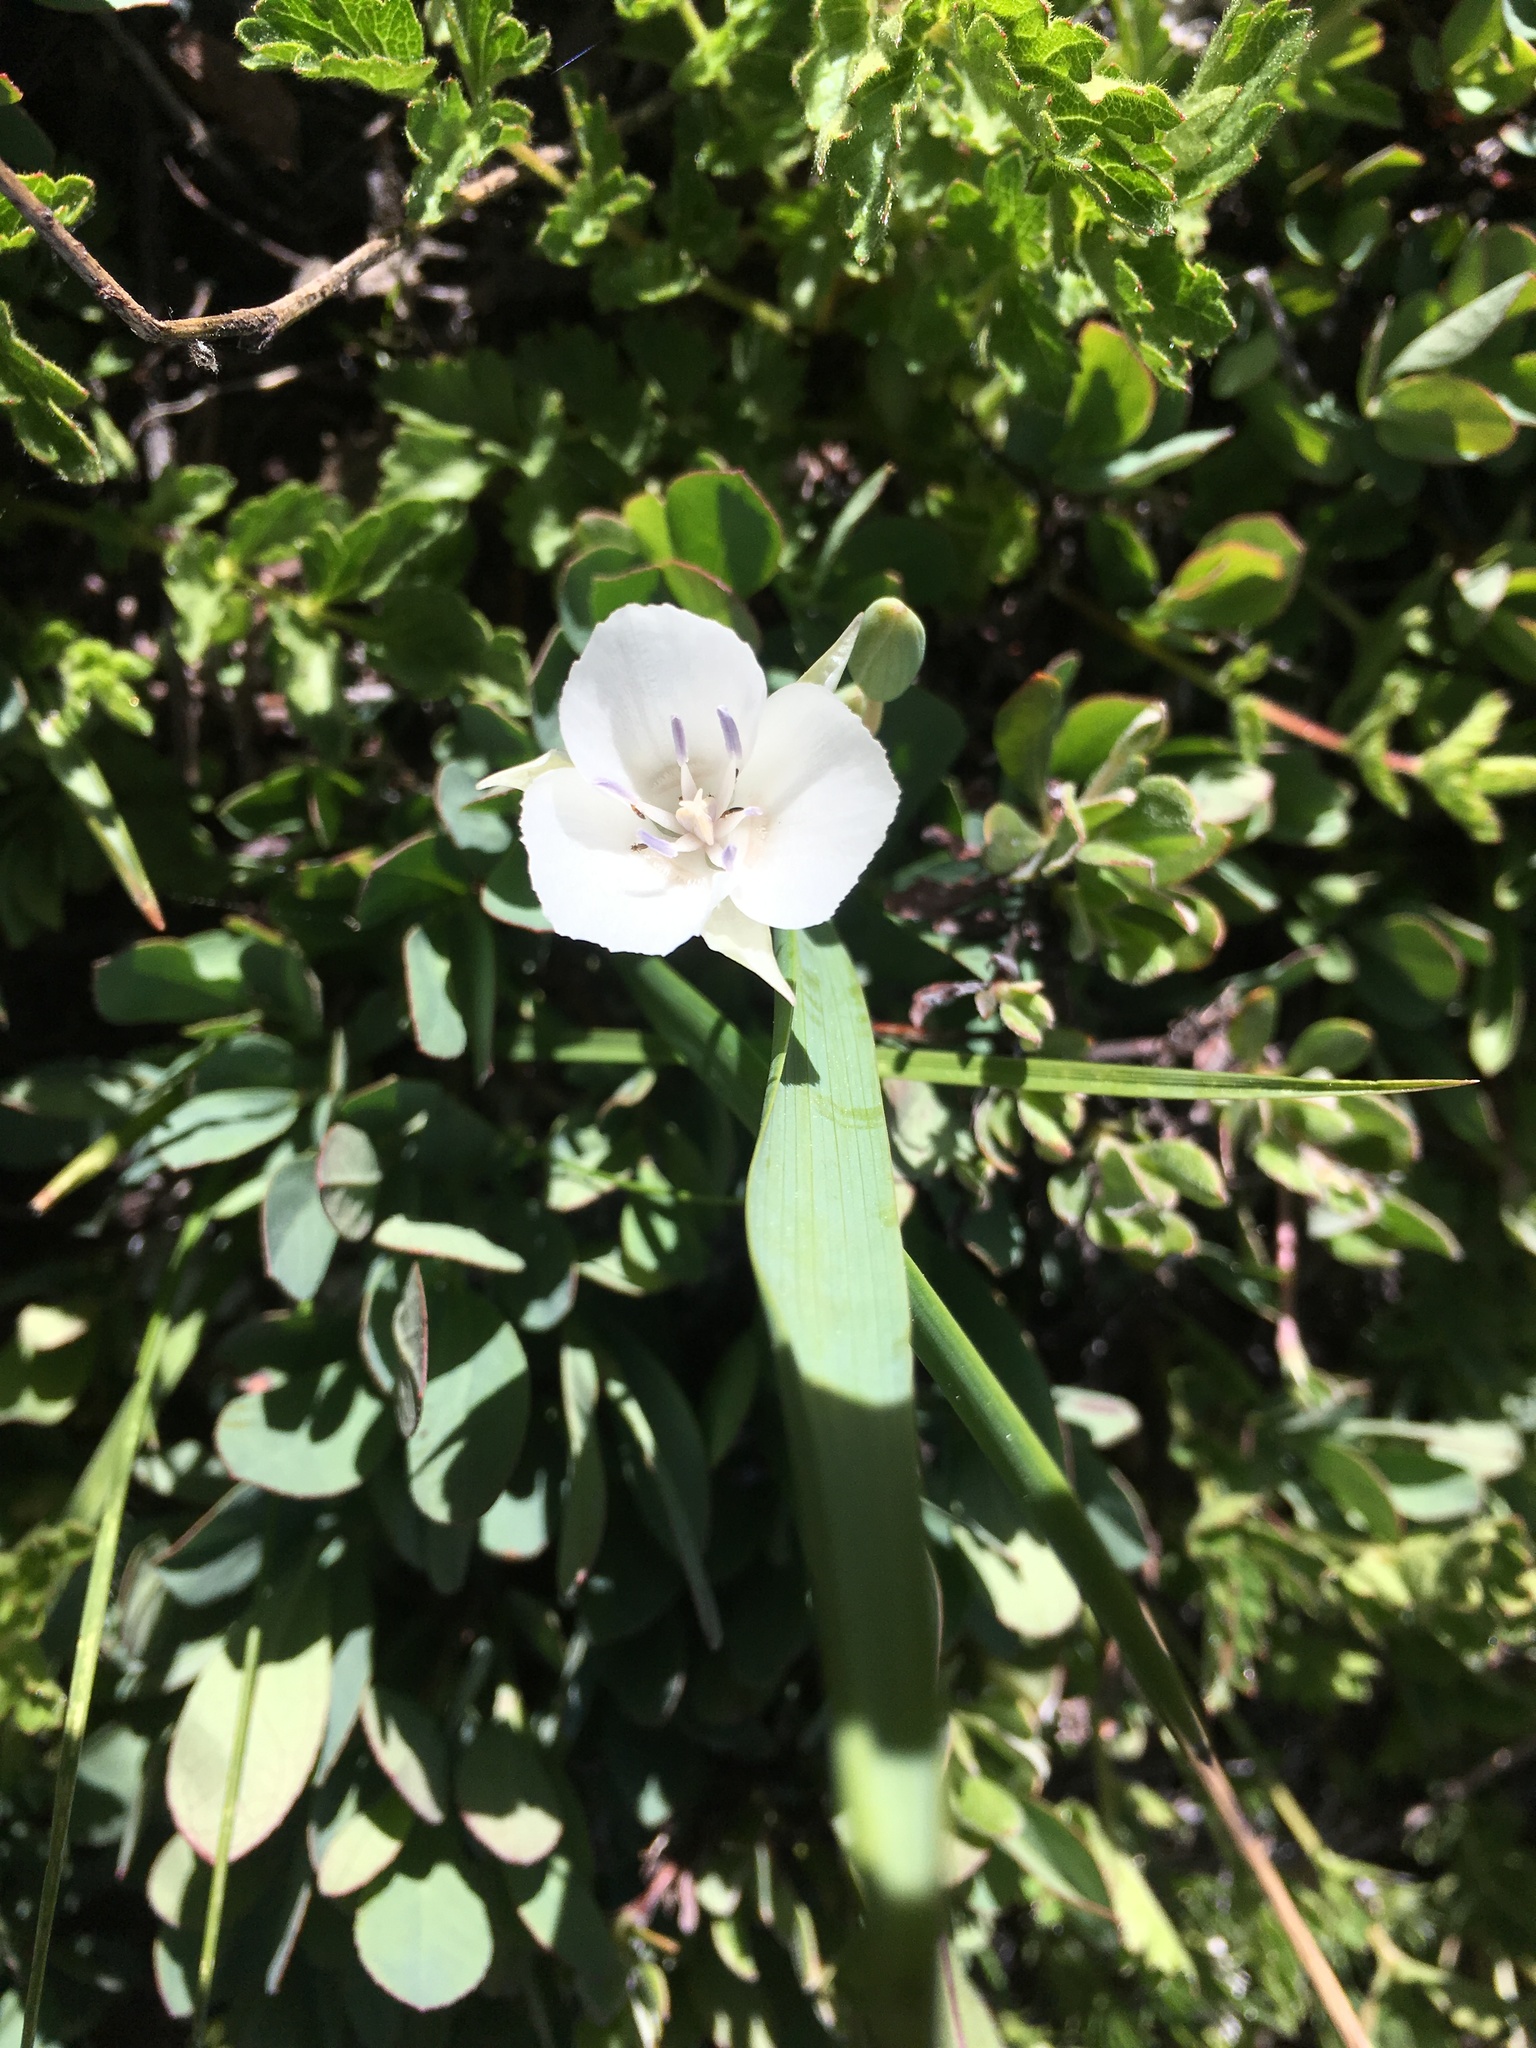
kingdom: Plantae
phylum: Tracheophyta
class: Liliopsida
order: Liliales
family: Liliaceae
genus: Calochortus
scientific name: Calochortus minimus
